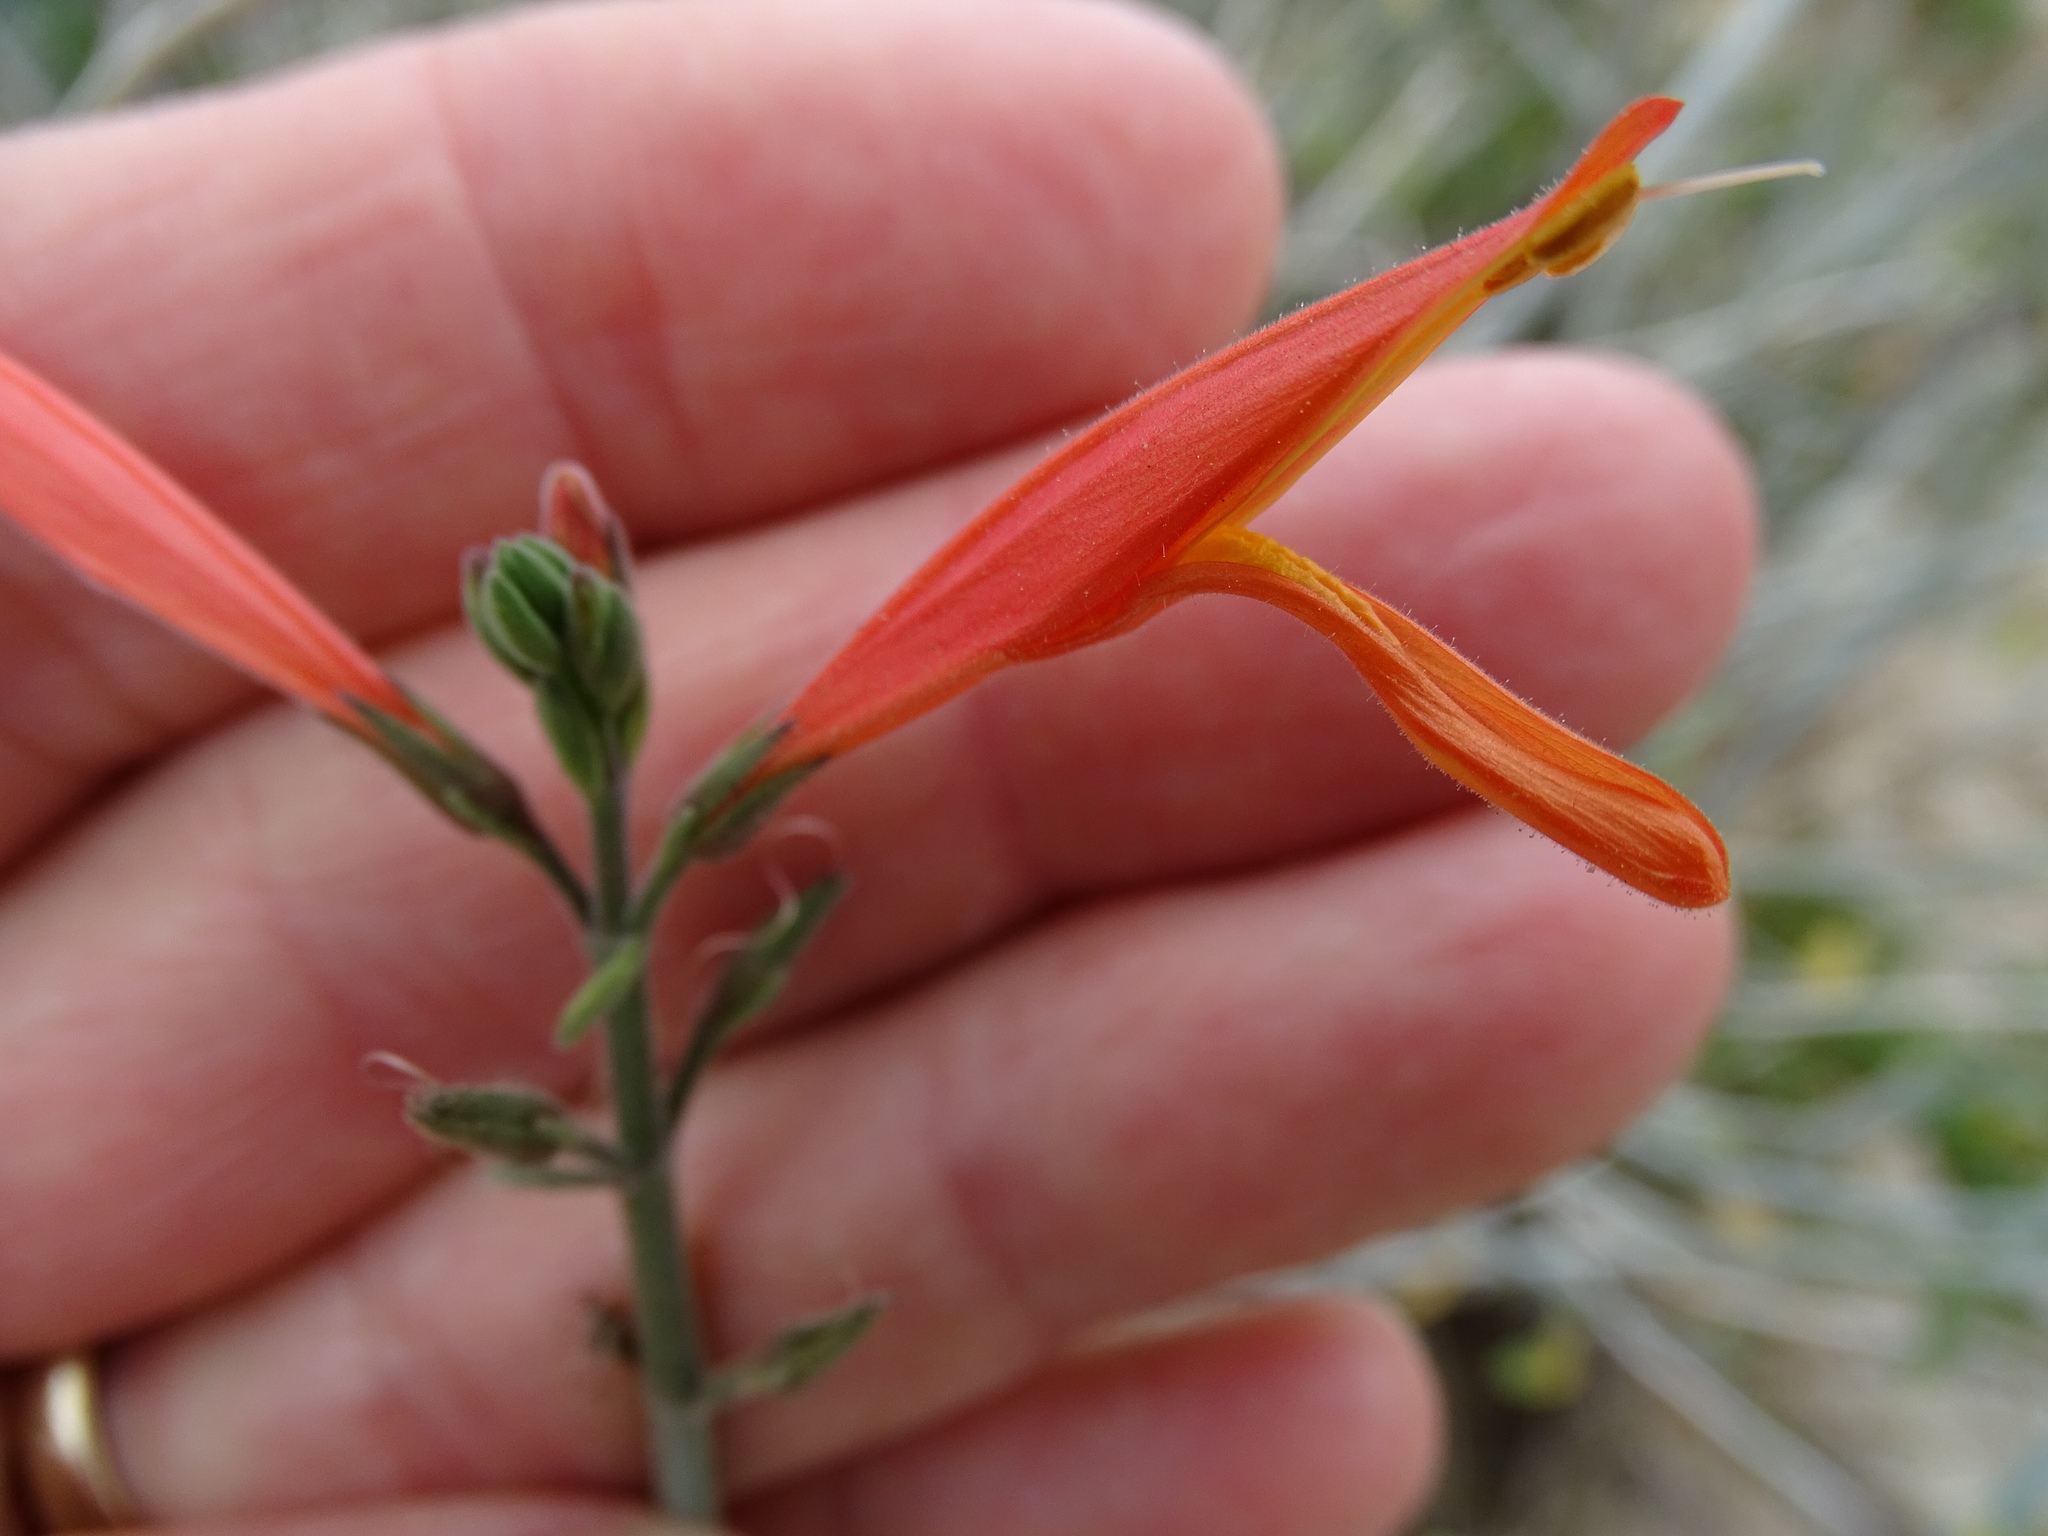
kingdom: Plantae
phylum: Tracheophyta
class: Magnoliopsida
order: Lamiales
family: Acanthaceae
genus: Justicia
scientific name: Justicia californica
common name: Chuparosa-honeysuckle
